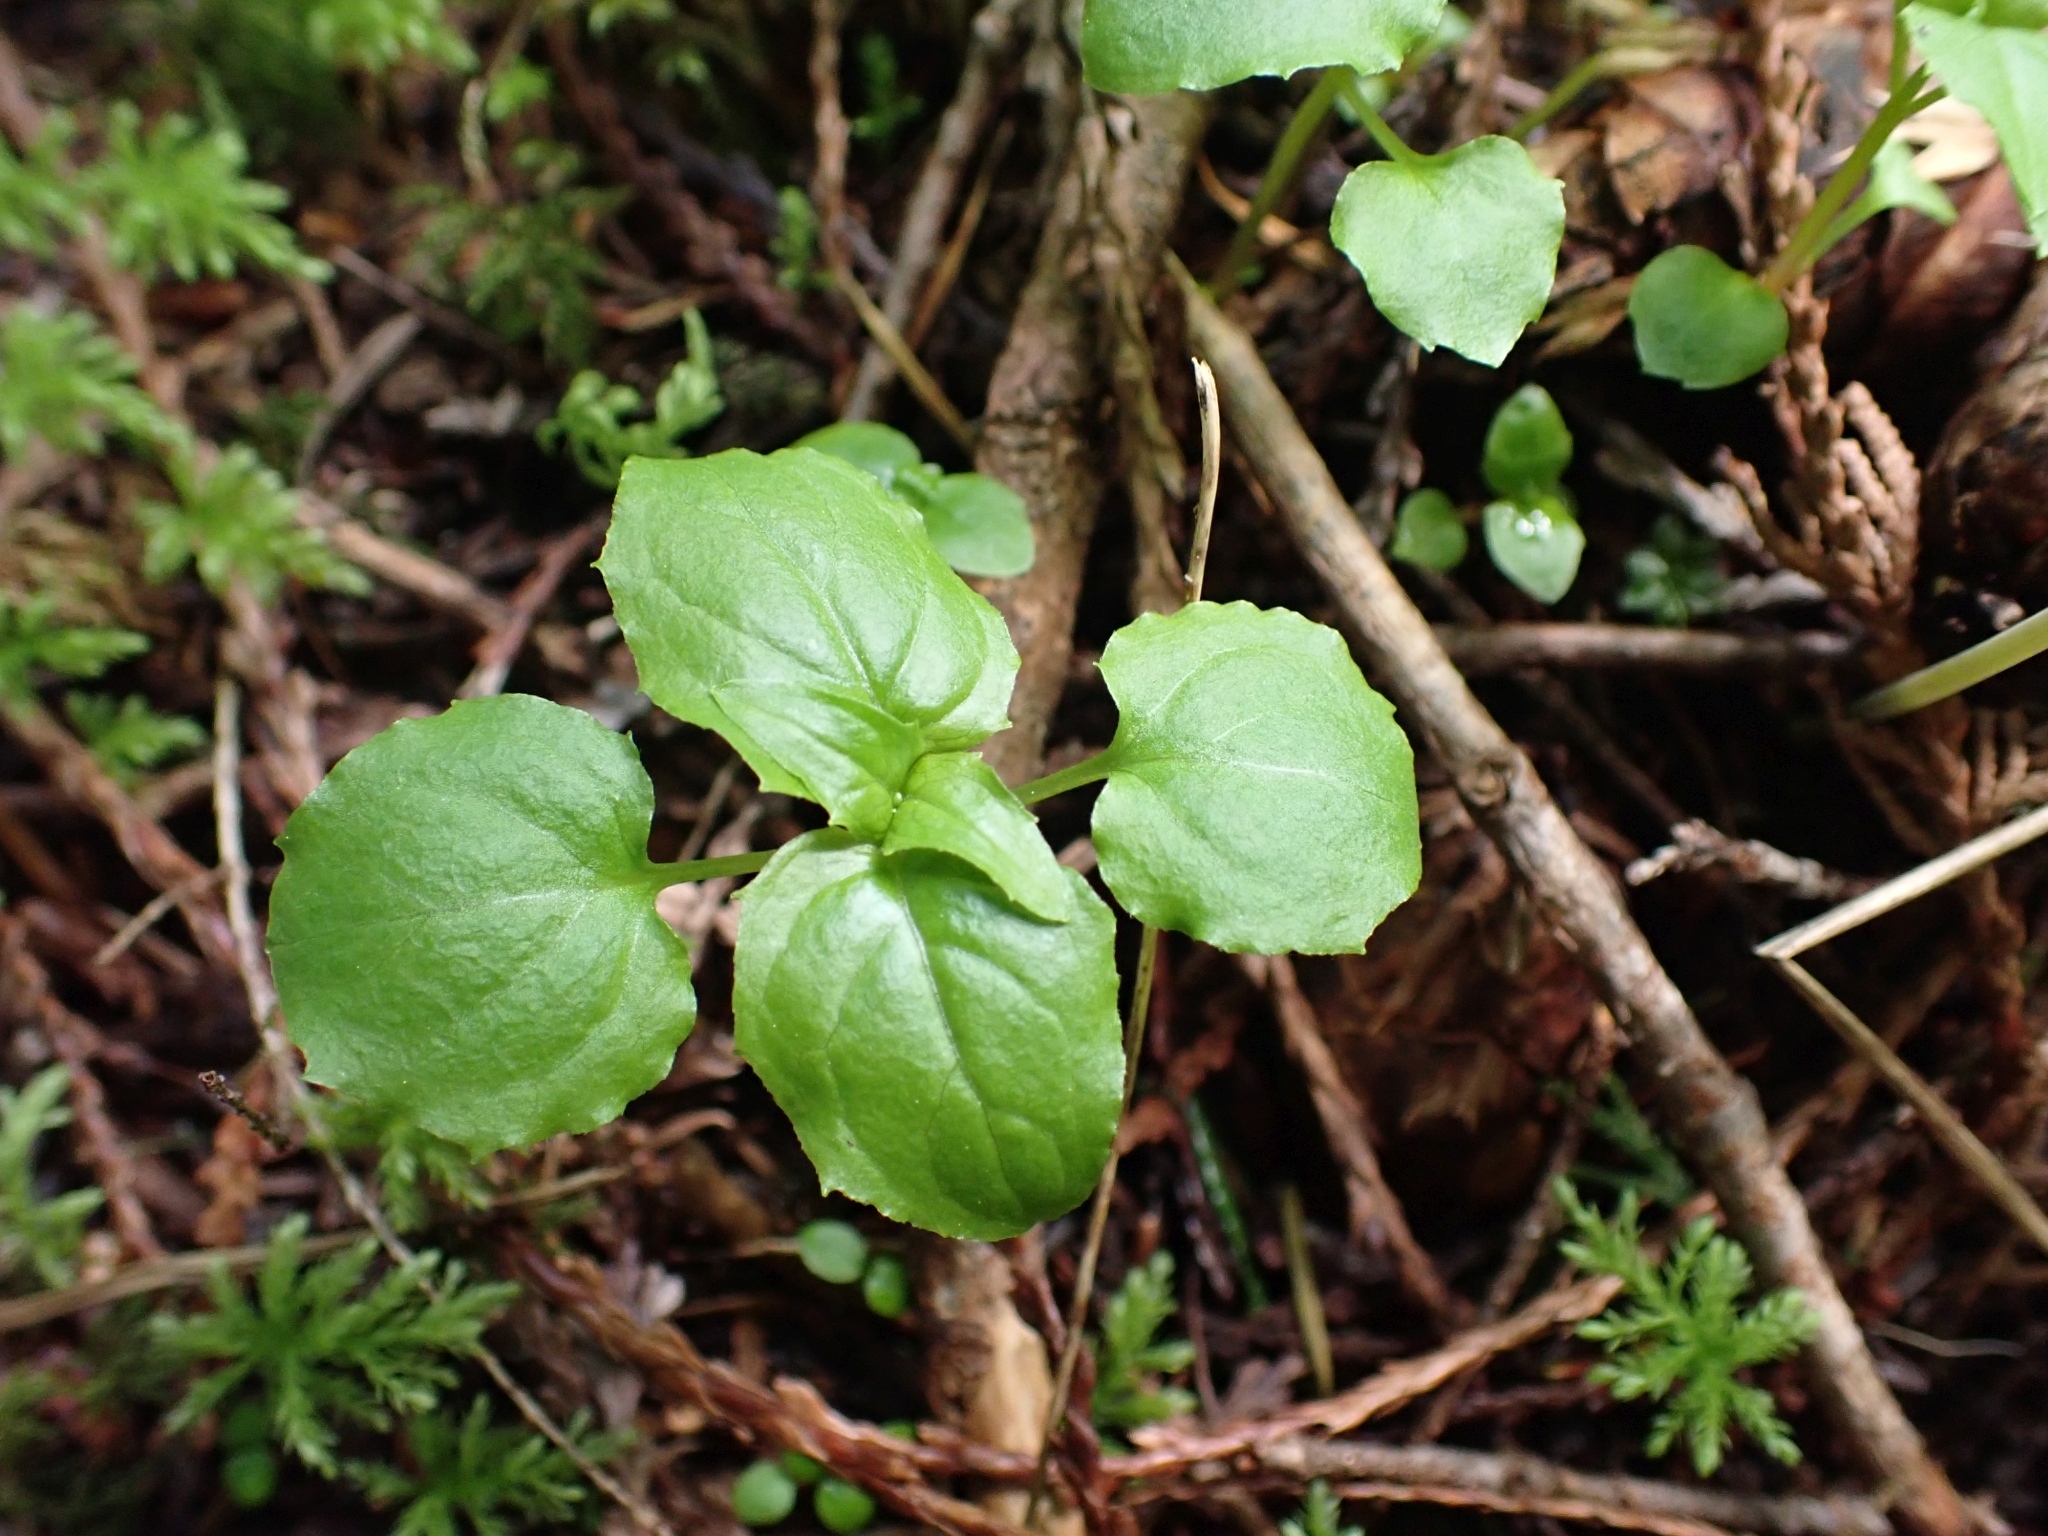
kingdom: Plantae
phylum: Tracheophyta
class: Magnoliopsida
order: Myrtales
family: Onagraceae
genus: Circaea
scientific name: Circaea alpina
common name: Alpine enchanter's-nightshade
